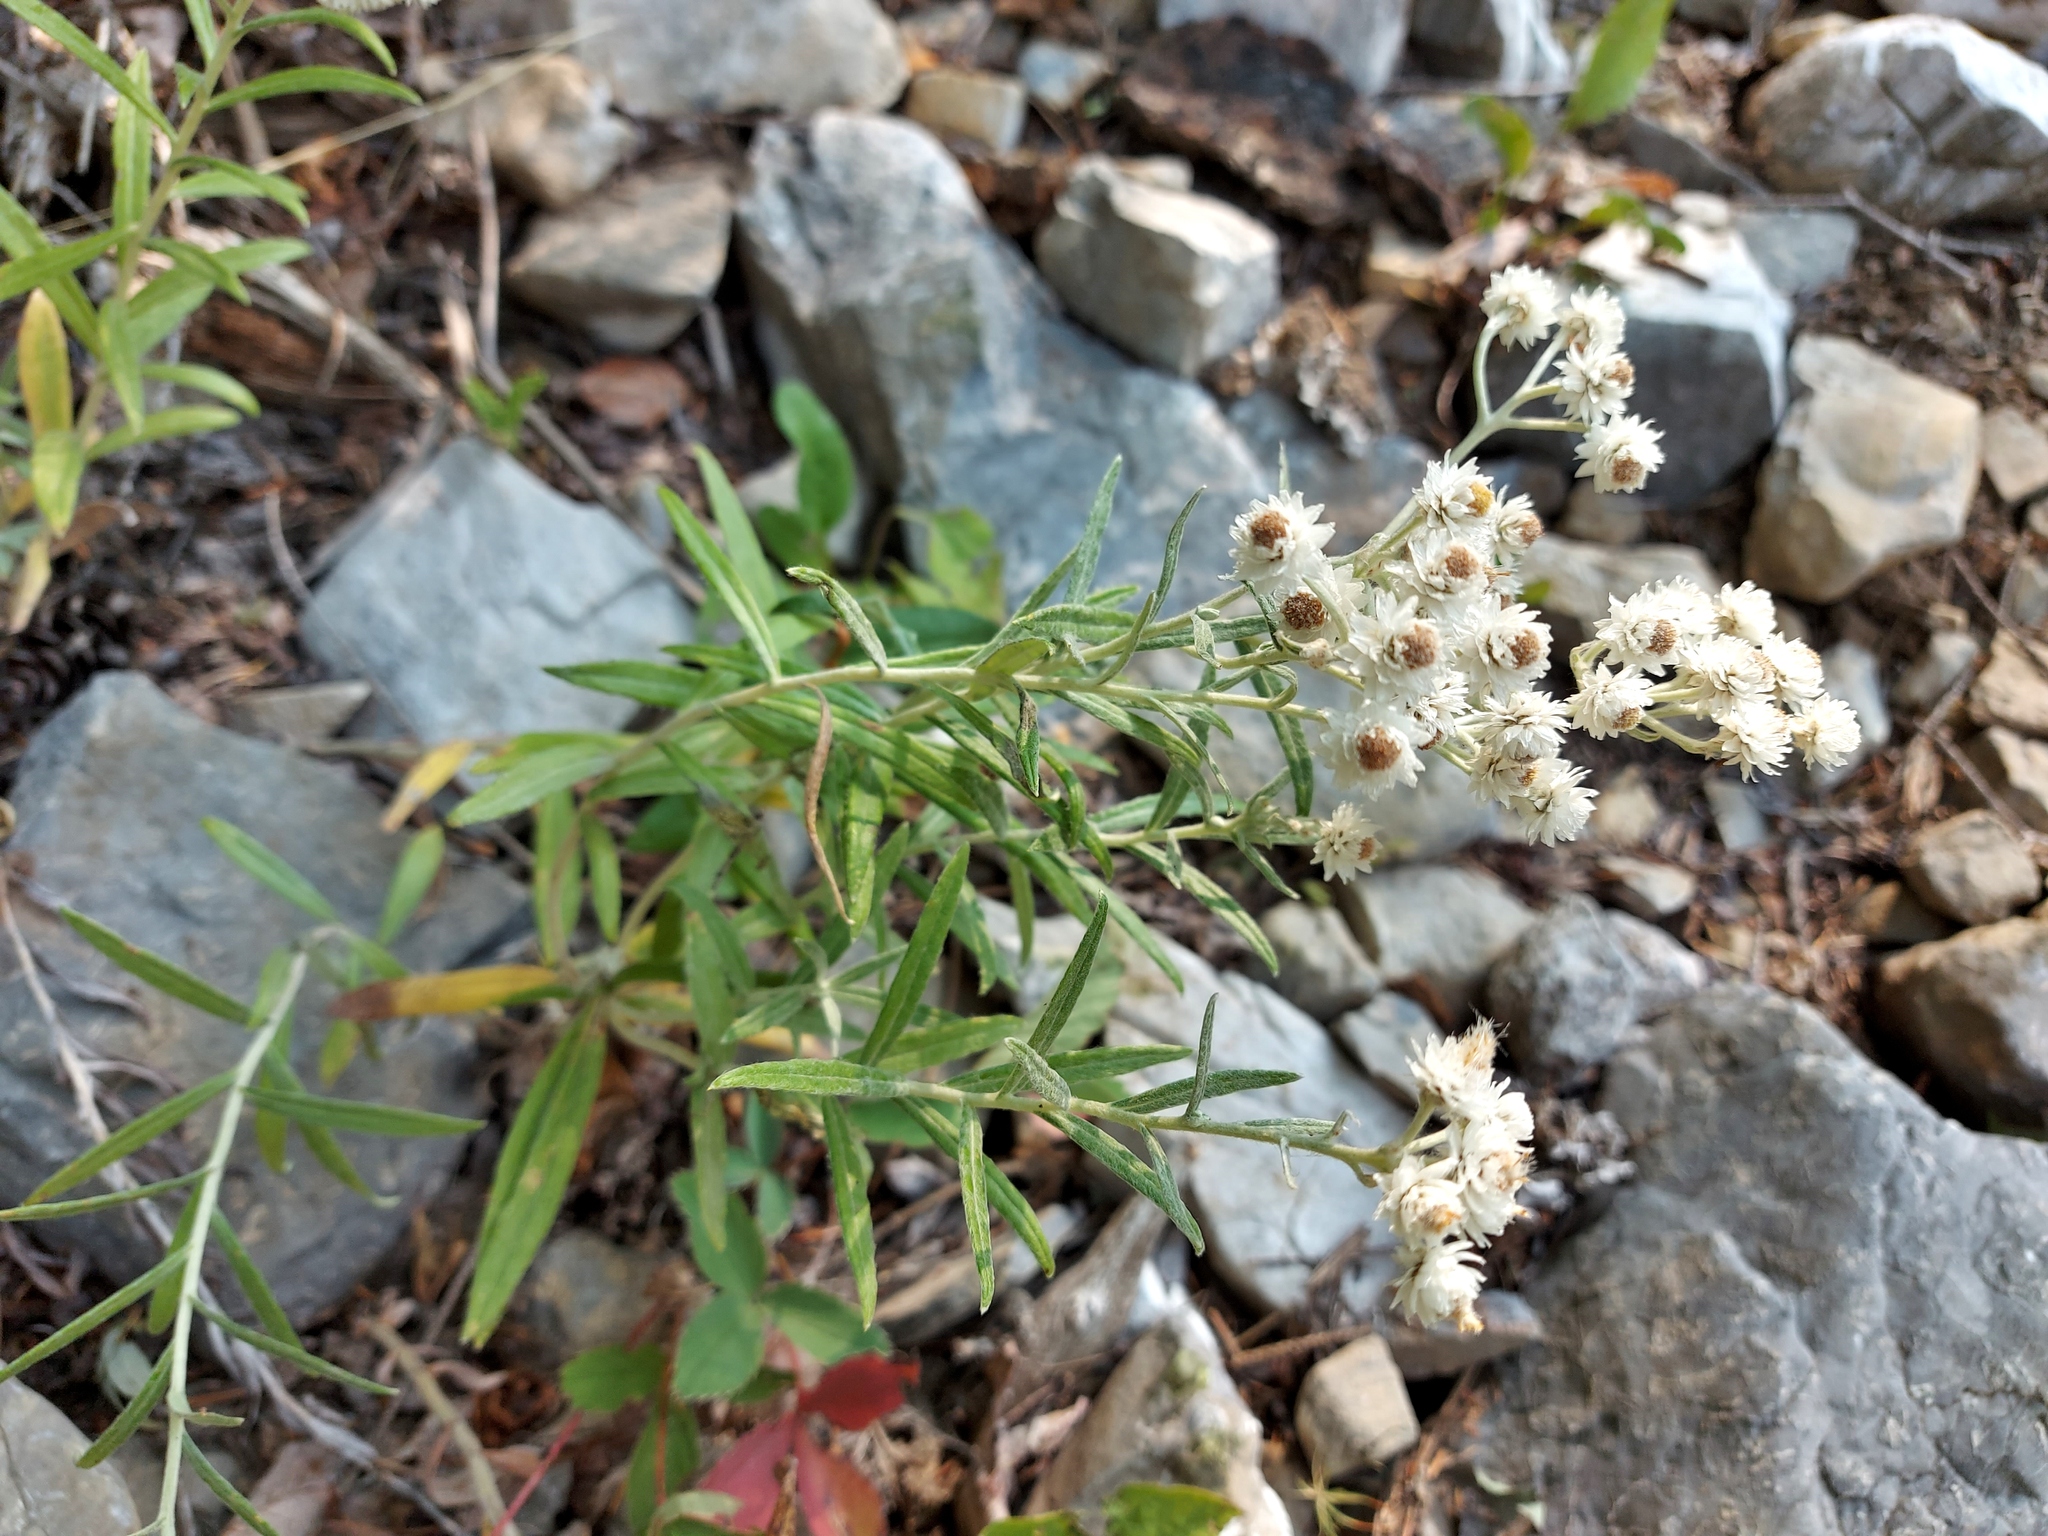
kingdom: Plantae
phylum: Tracheophyta
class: Magnoliopsida
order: Asterales
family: Asteraceae
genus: Anaphalis
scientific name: Anaphalis margaritacea
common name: Pearly everlasting
